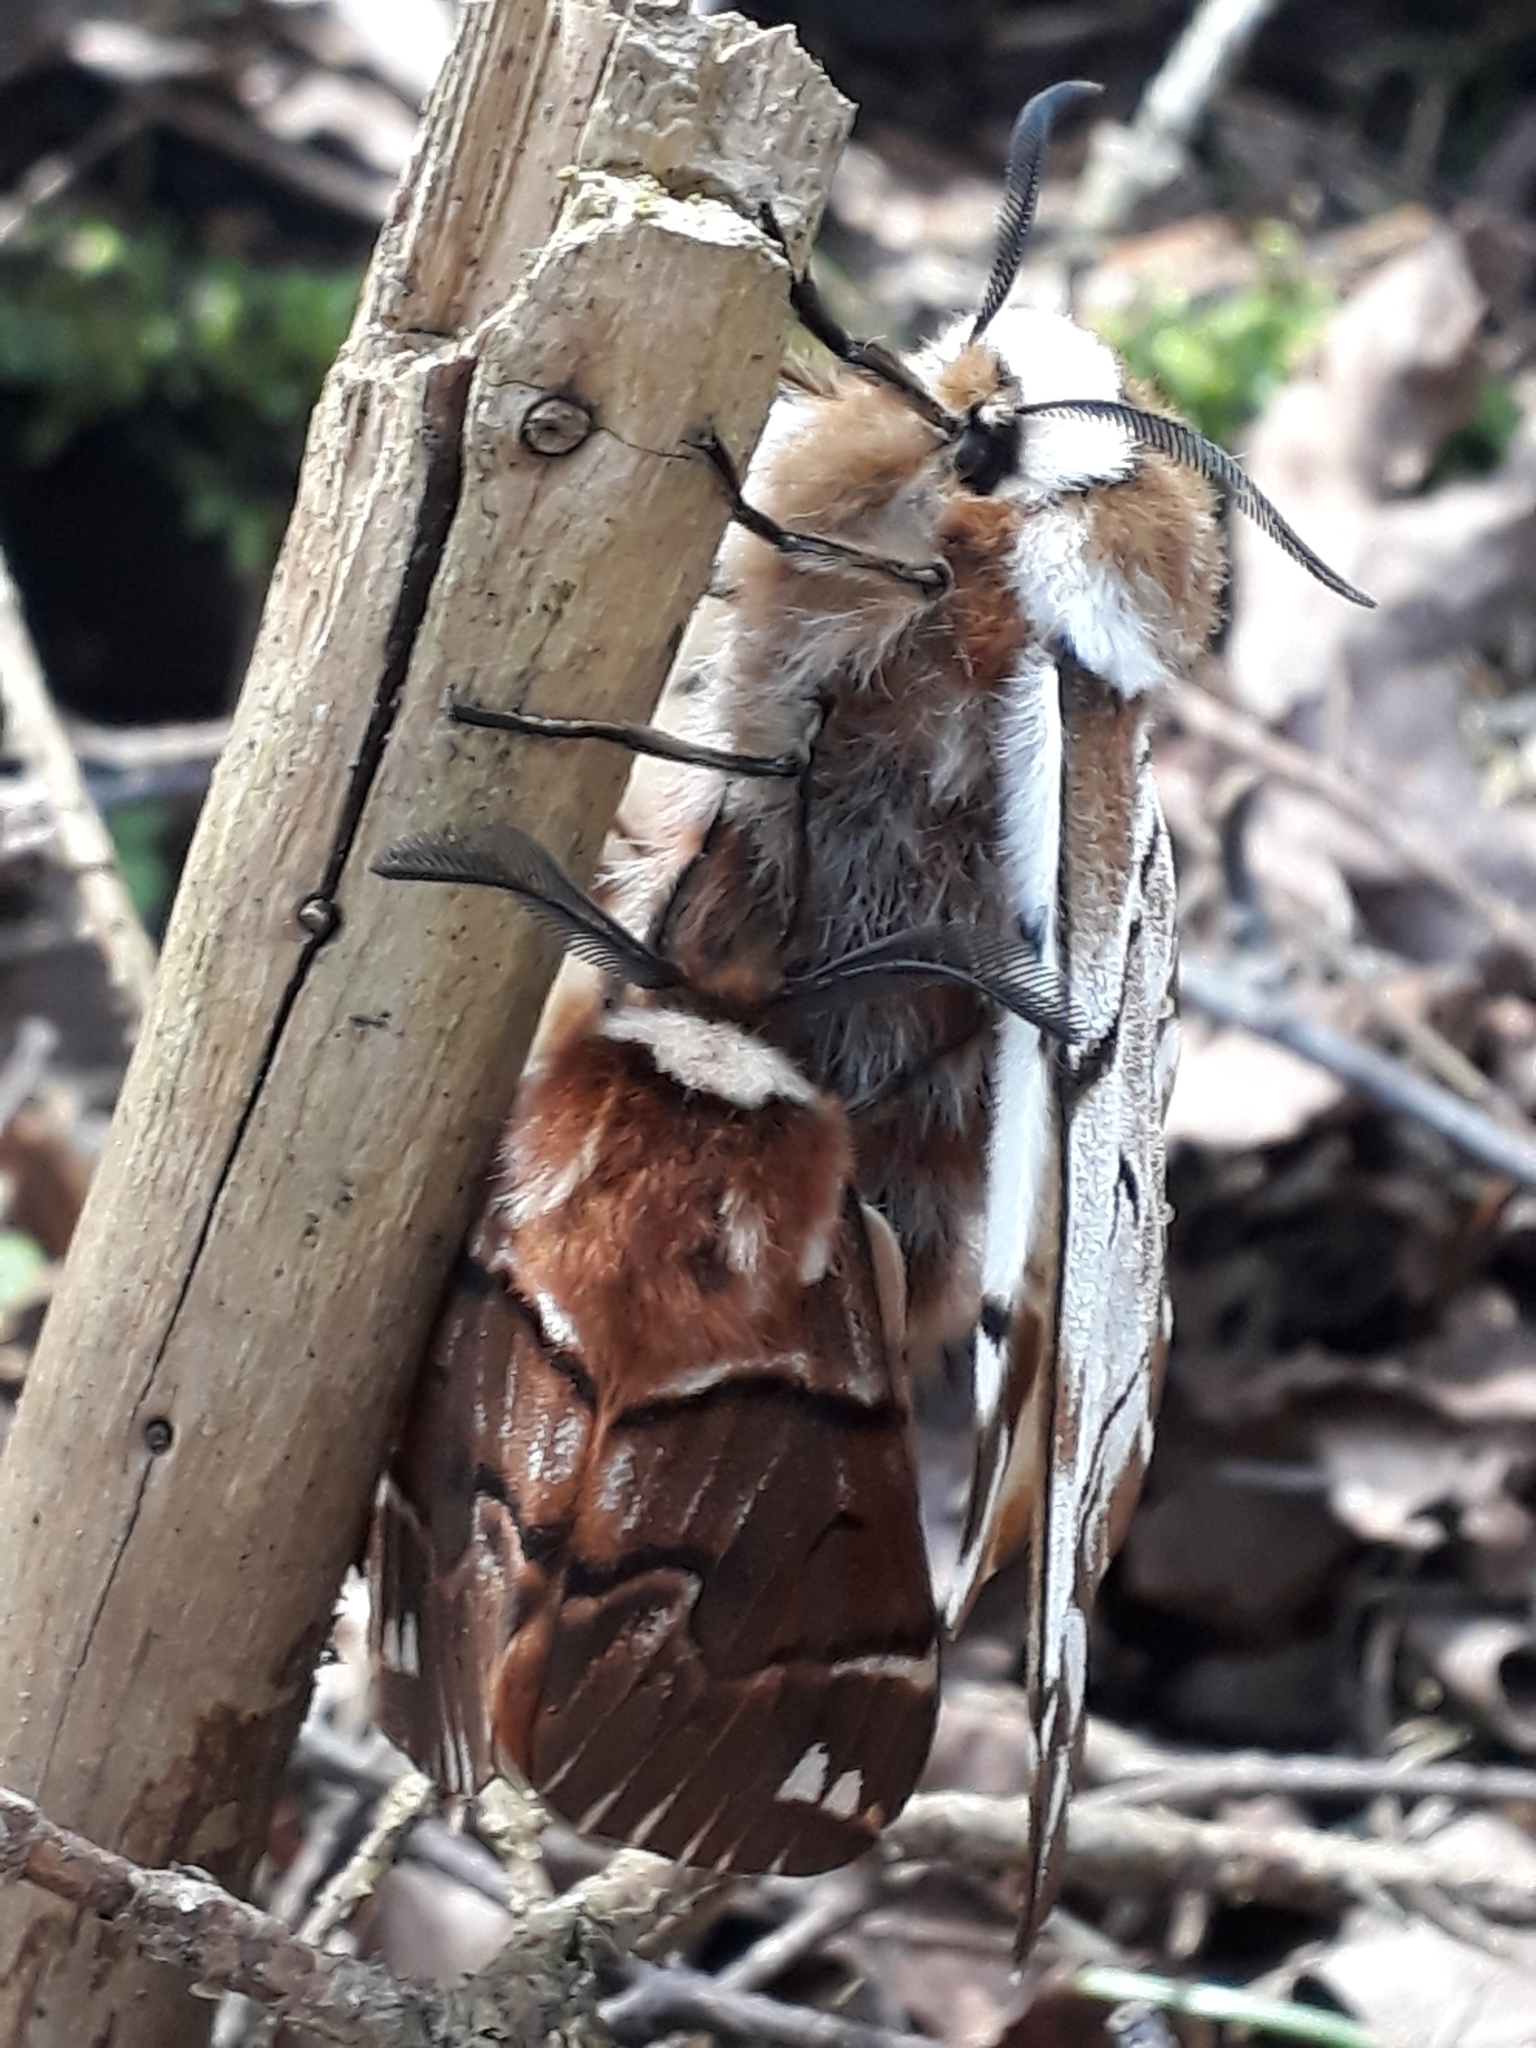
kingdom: Animalia
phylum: Arthropoda
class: Insecta
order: Lepidoptera
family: Endromidae
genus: Endromis
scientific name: Endromis versicolora
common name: Kentish glory
